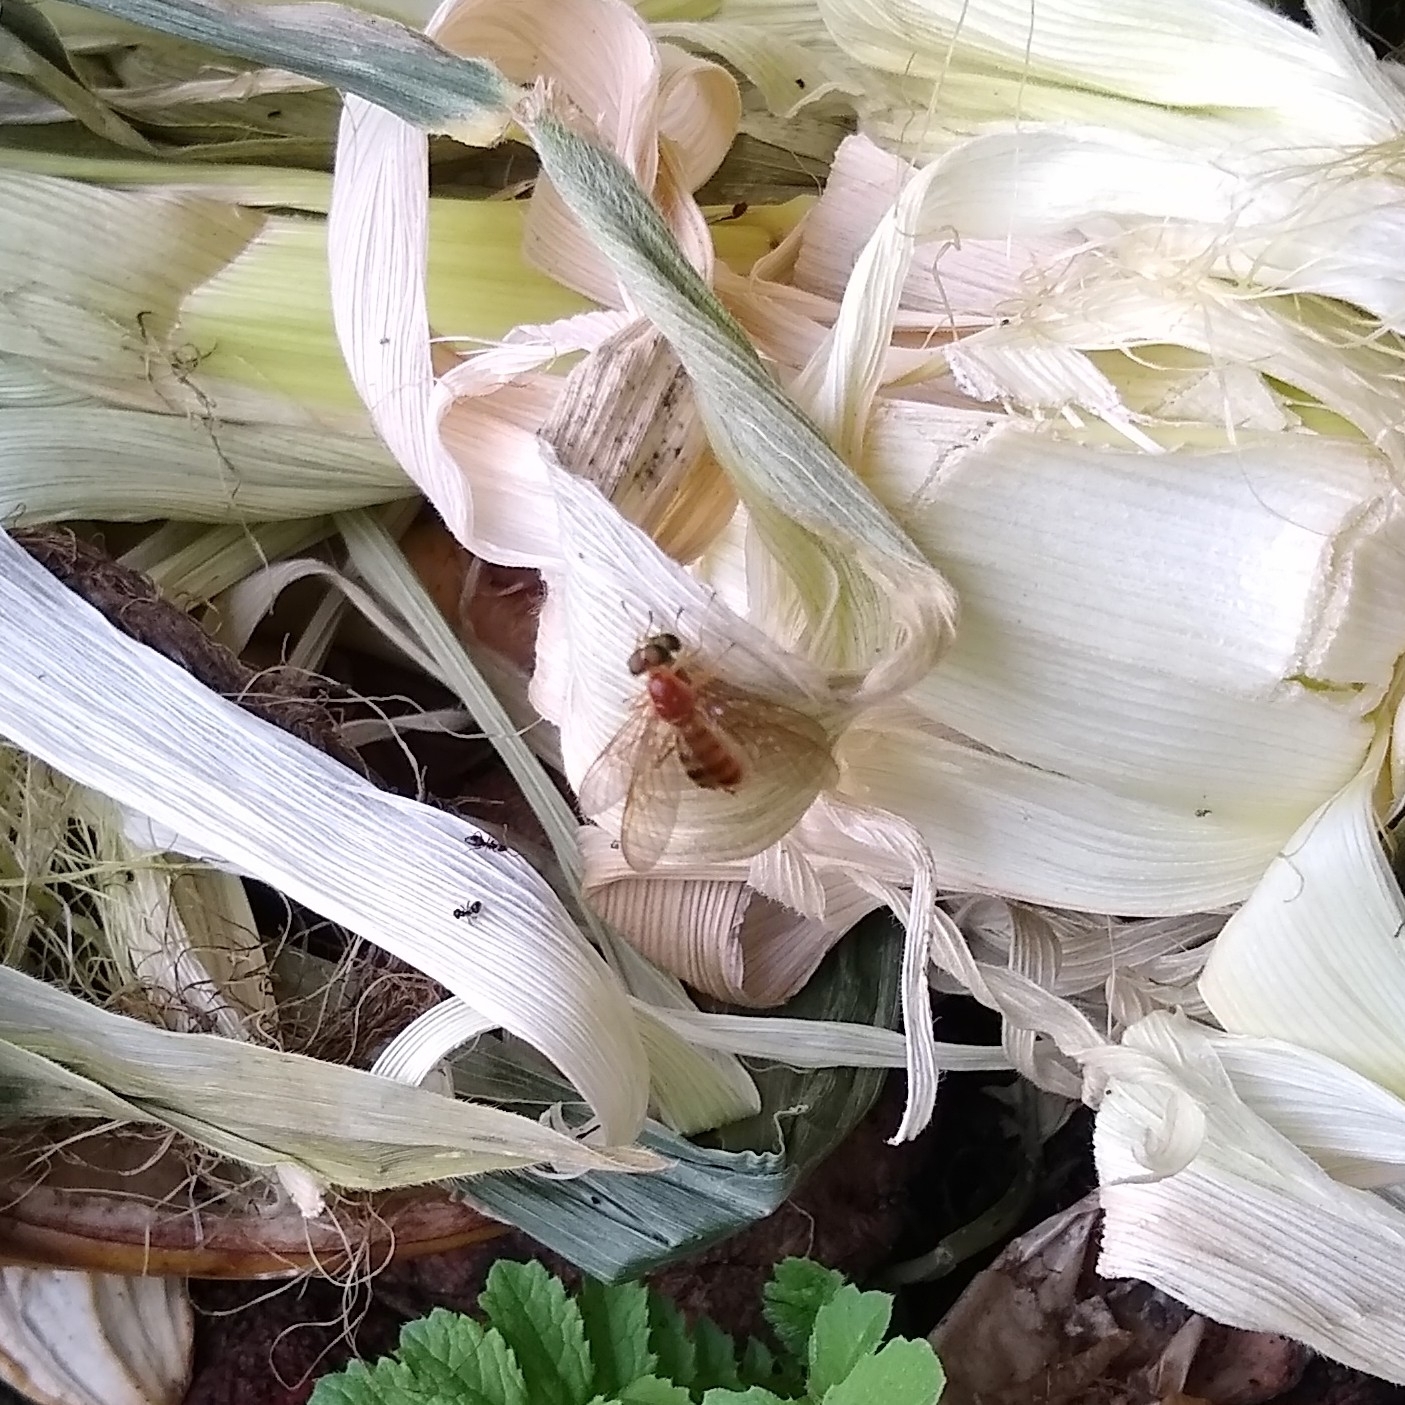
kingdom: Animalia
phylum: Arthropoda
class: Insecta
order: Diptera
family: Stratiomyidae
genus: Ptecticus
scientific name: Ptecticus trivittatus
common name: Compost fly
